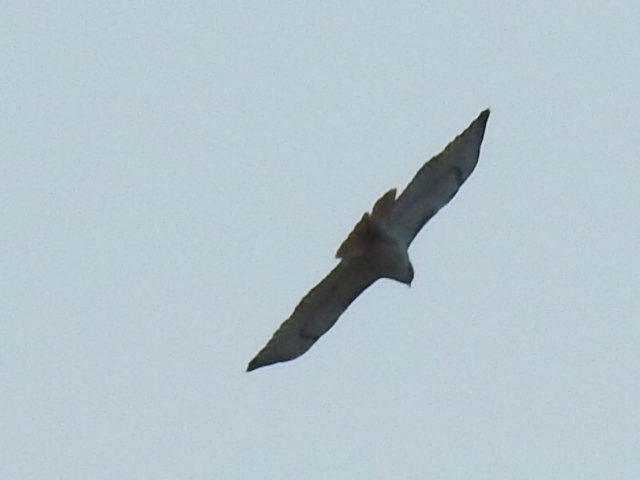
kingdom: Animalia
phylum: Chordata
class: Aves
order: Accipitriformes
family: Accipitridae
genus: Buteo
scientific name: Buteo jamaicensis
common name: Red-tailed hawk
